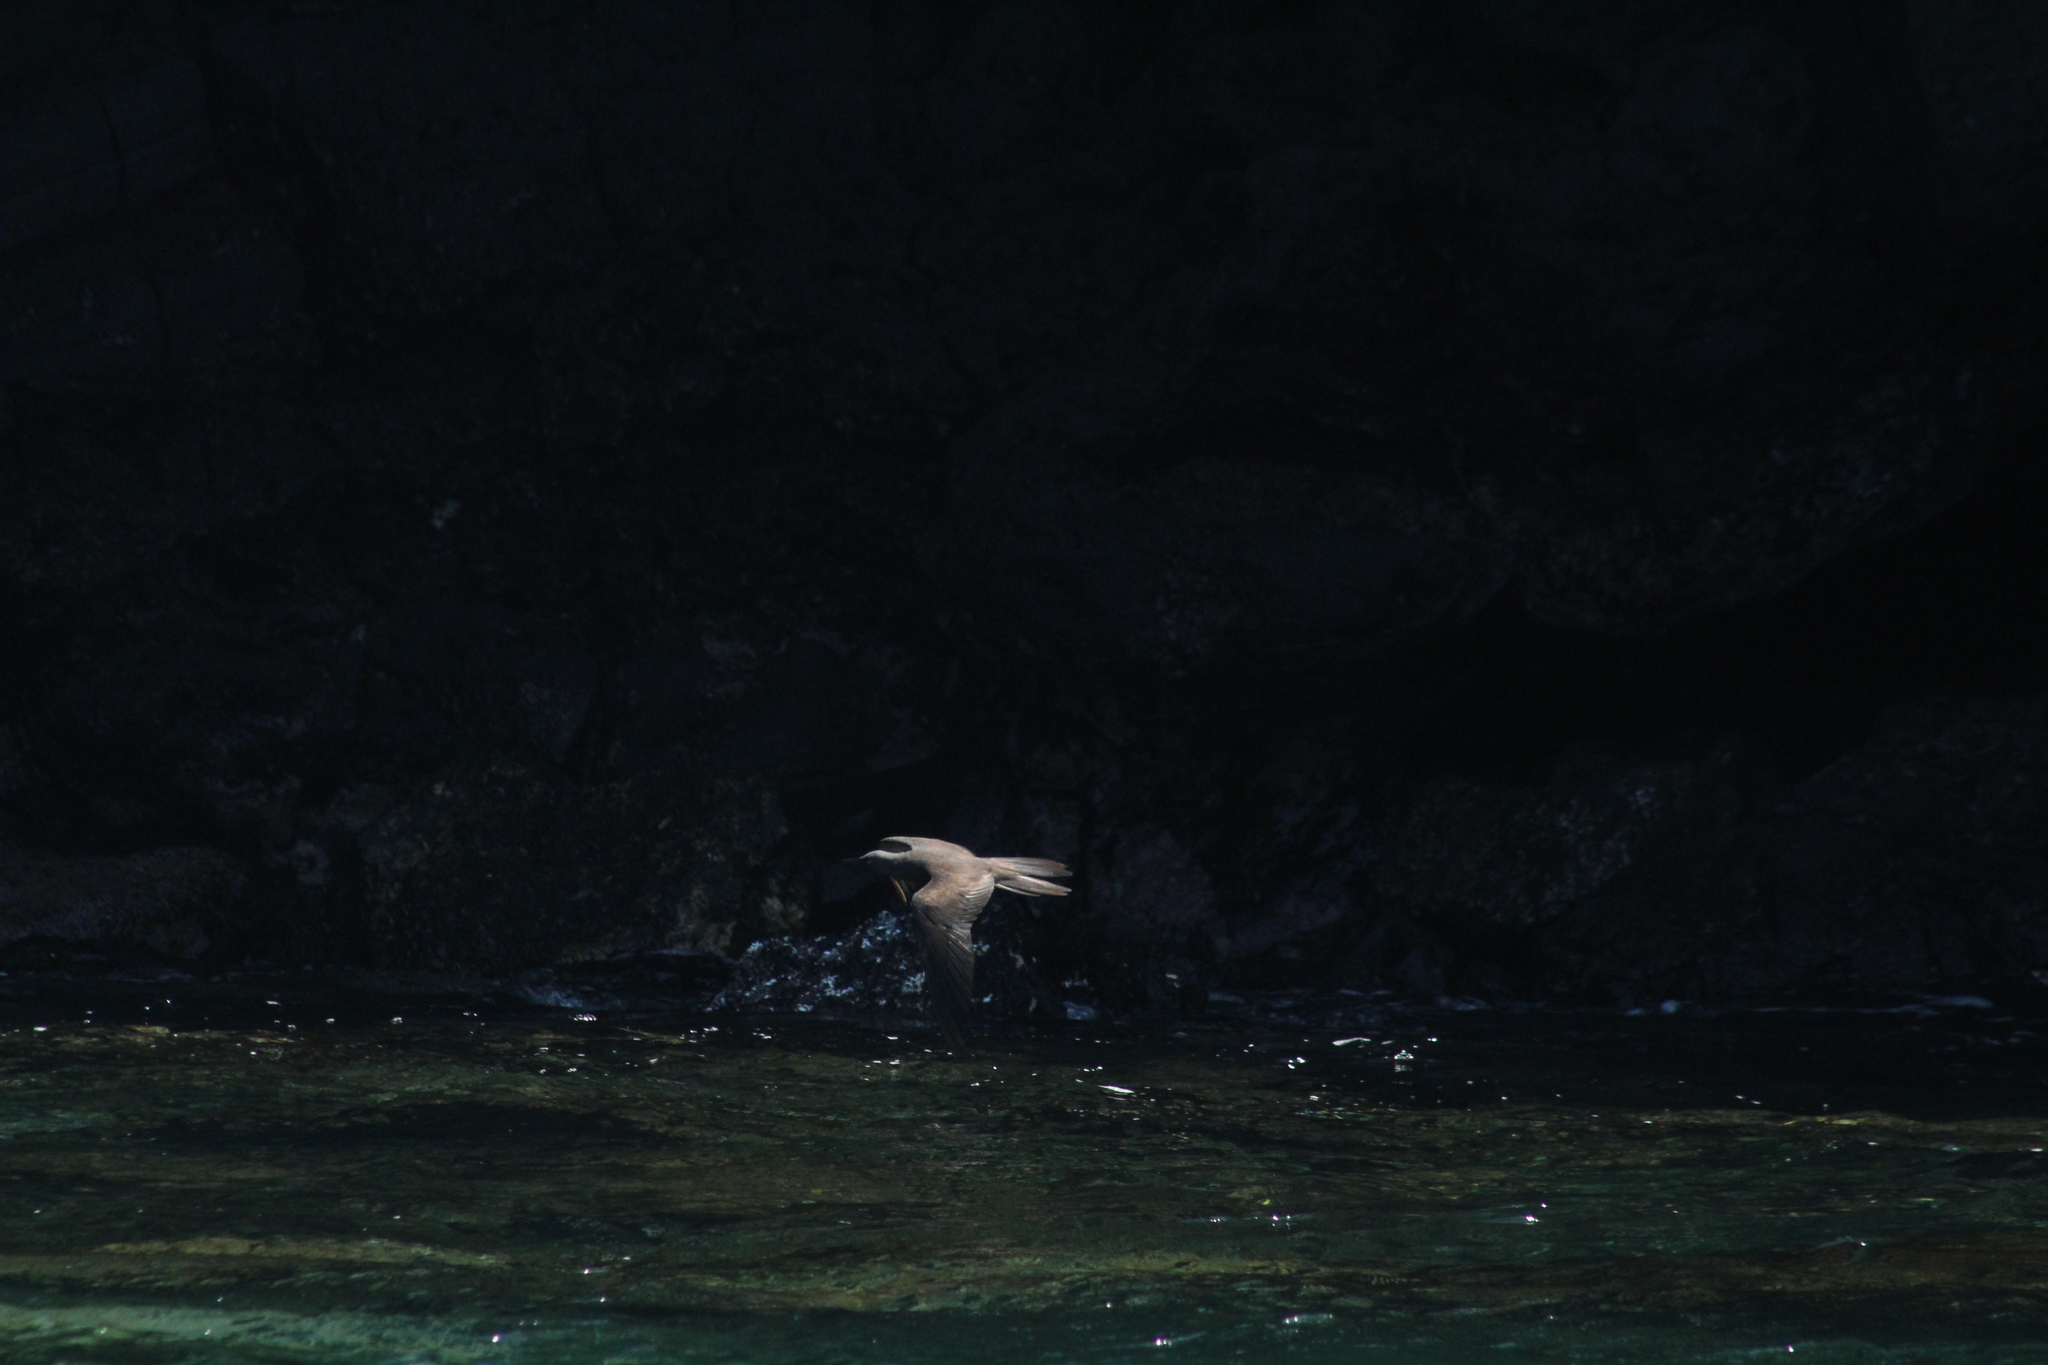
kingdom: Animalia
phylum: Chordata
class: Aves
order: Charadriiformes
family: Laridae
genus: Anous
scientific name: Anous stolidus
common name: Brown noddy
